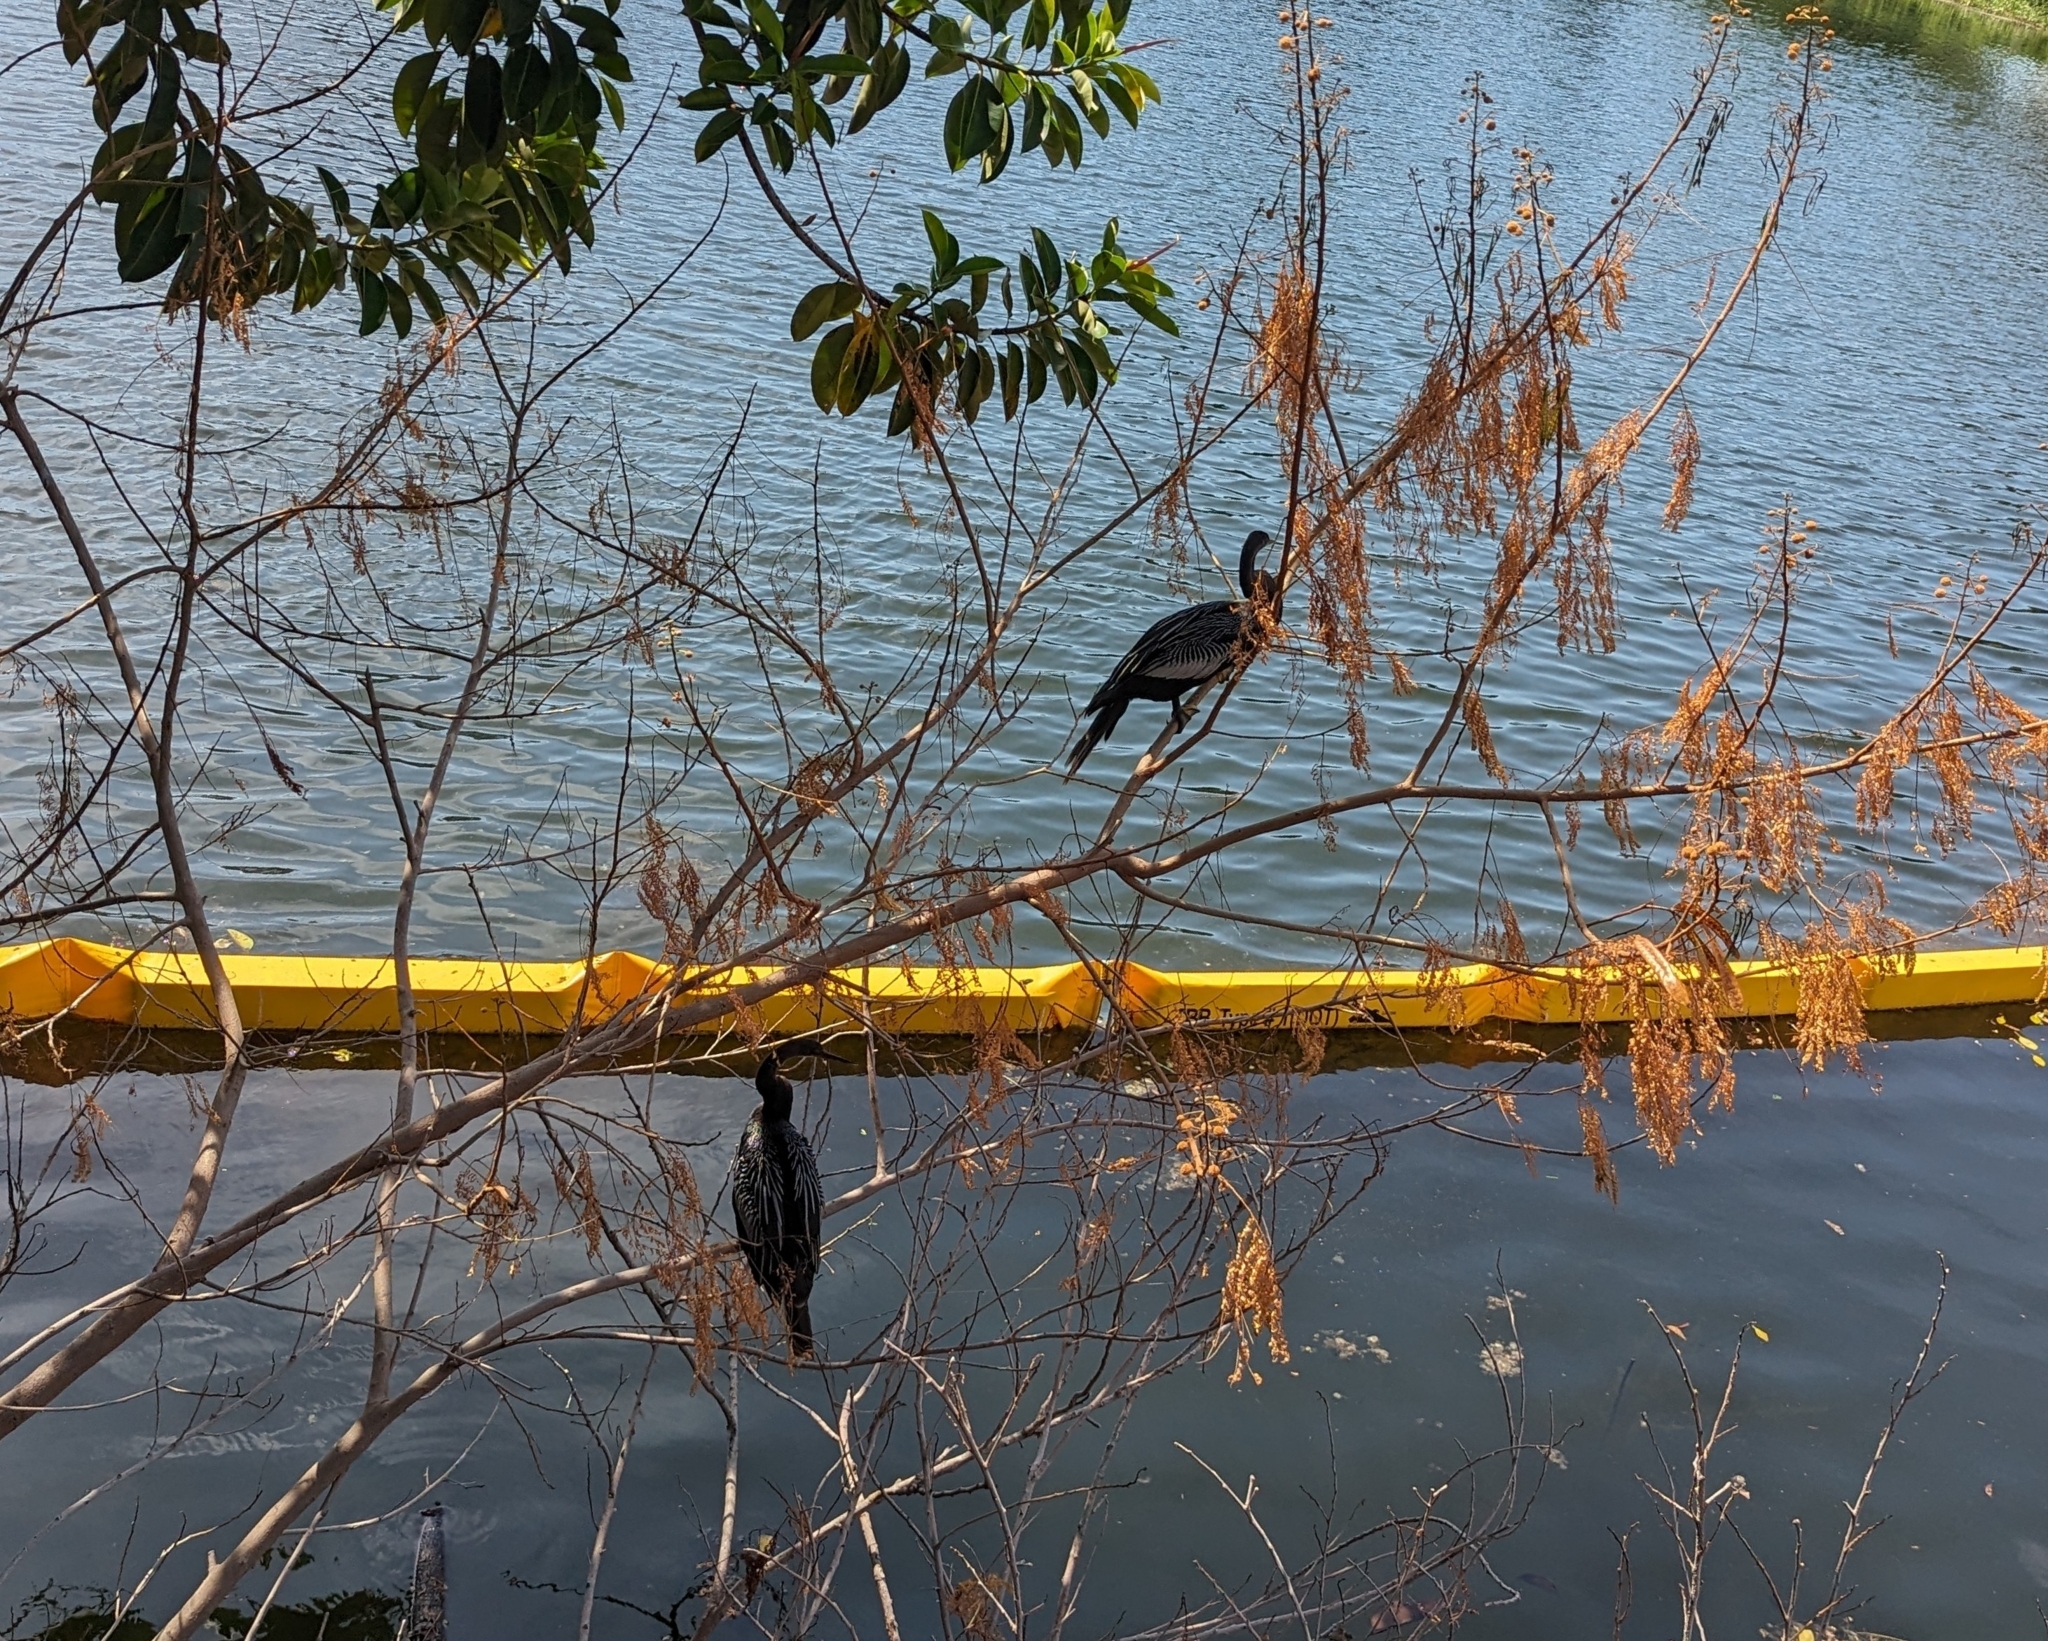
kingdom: Animalia
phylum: Chordata
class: Aves
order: Suliformes
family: Anhingidae
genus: Anhinga
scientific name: Anhinga anhinga
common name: Anhinga
